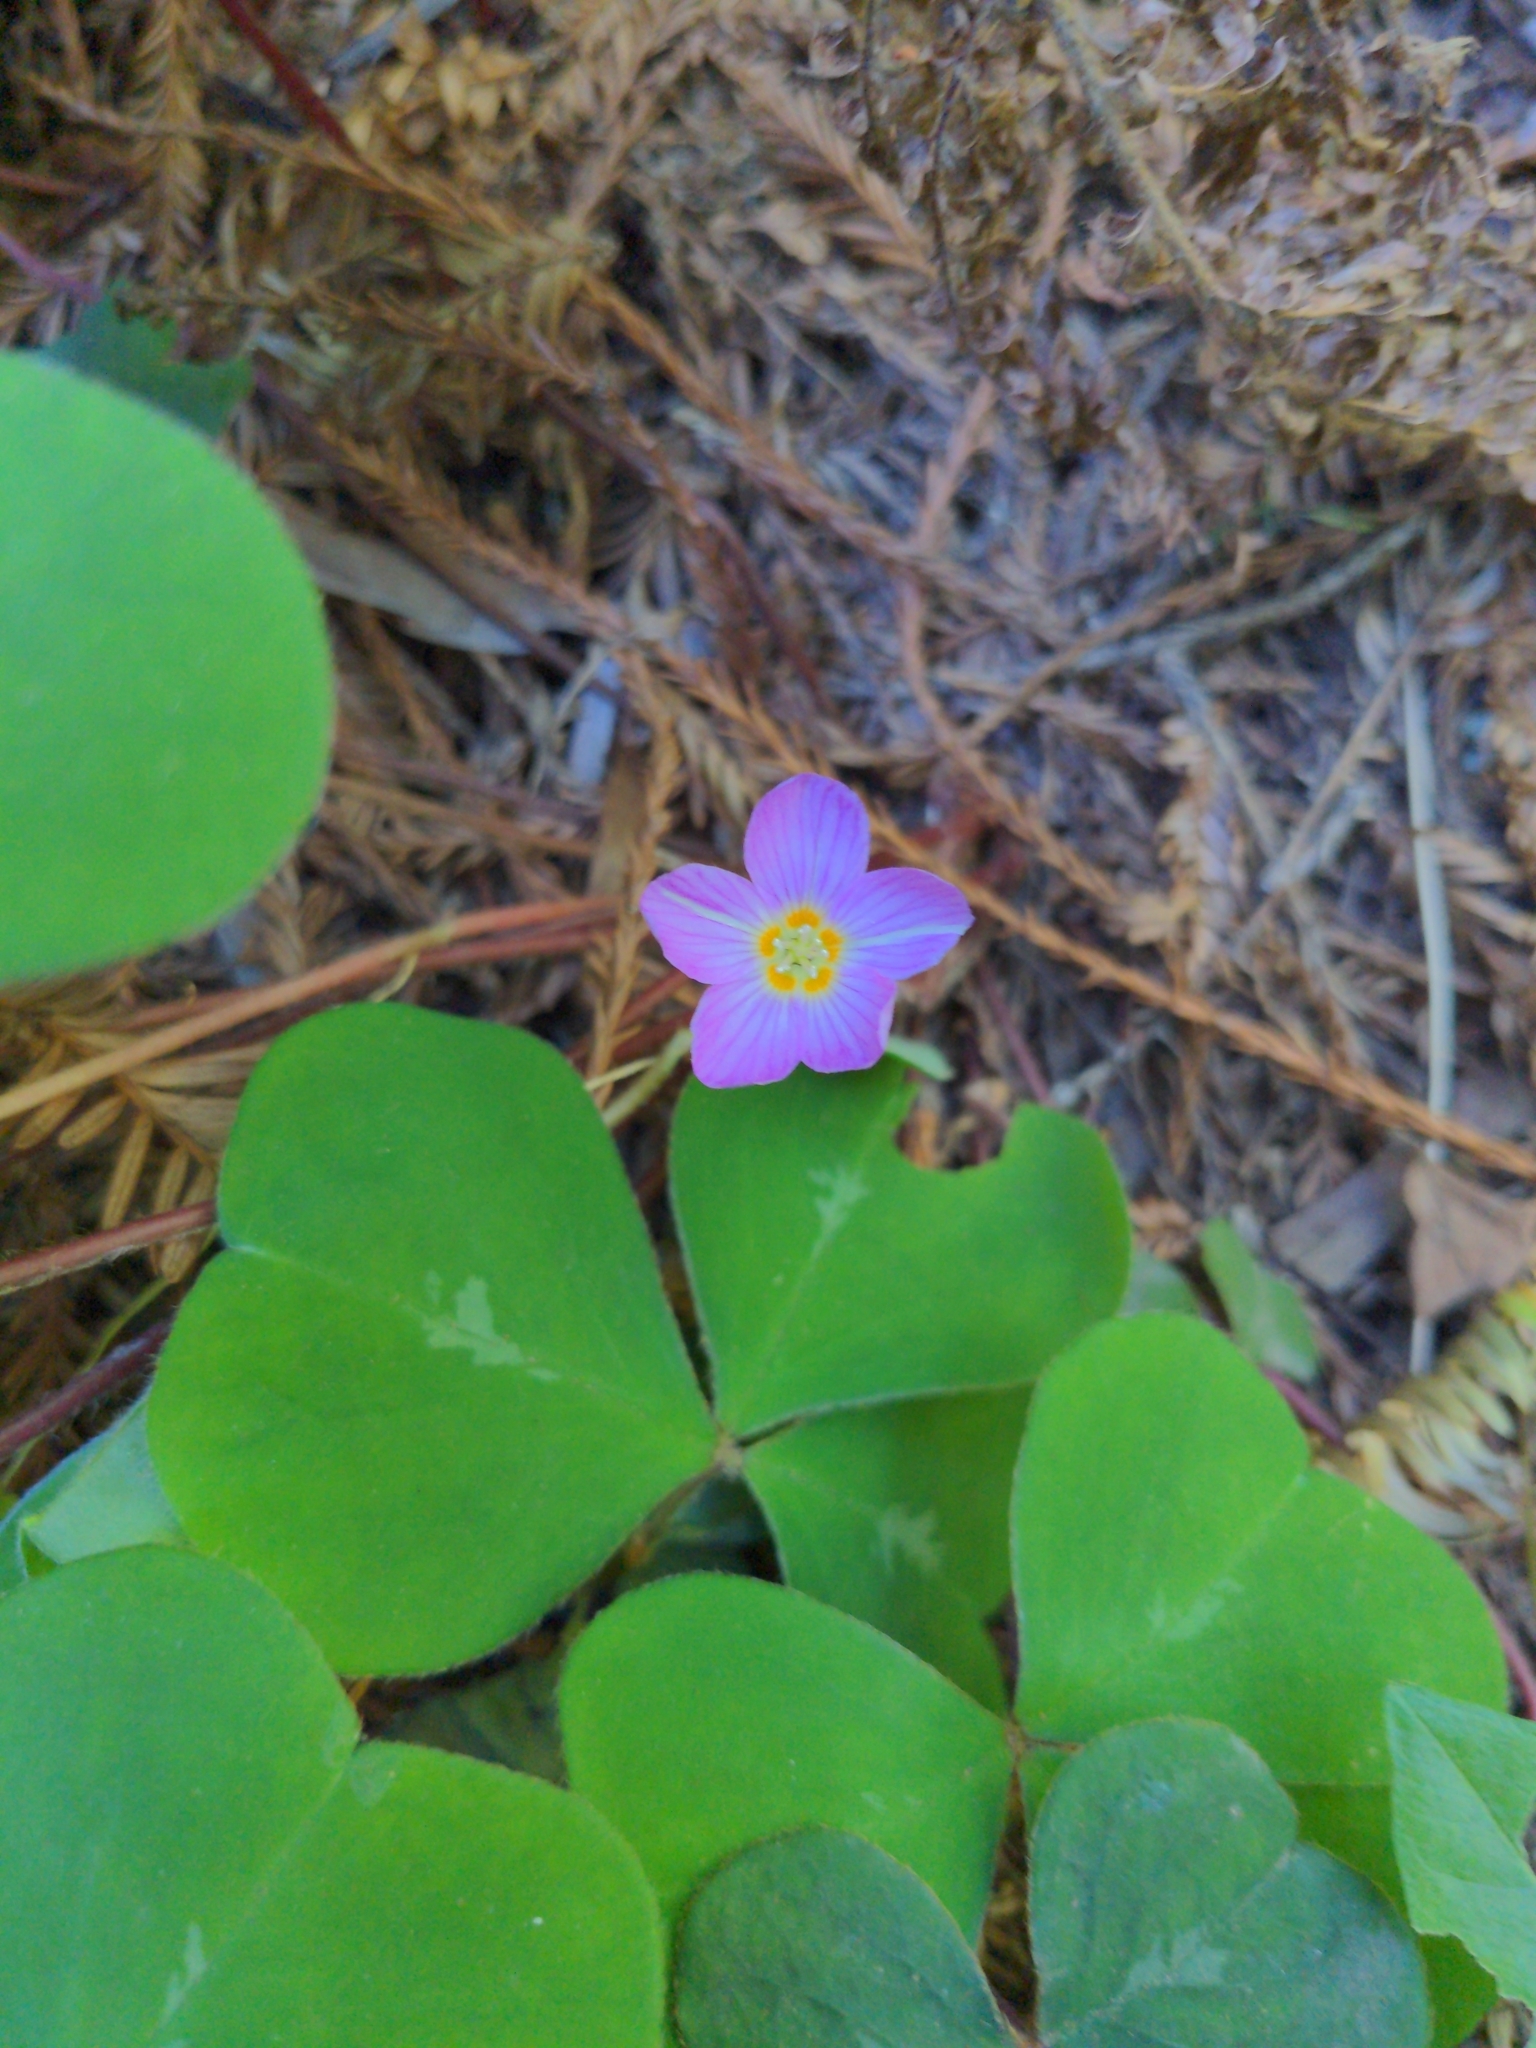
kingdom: Plantae
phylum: Tracheophyta
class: Magnoliopsida
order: Oxalidales
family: Oxalidaceae
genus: Oxalis
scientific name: Oxalis oregana
